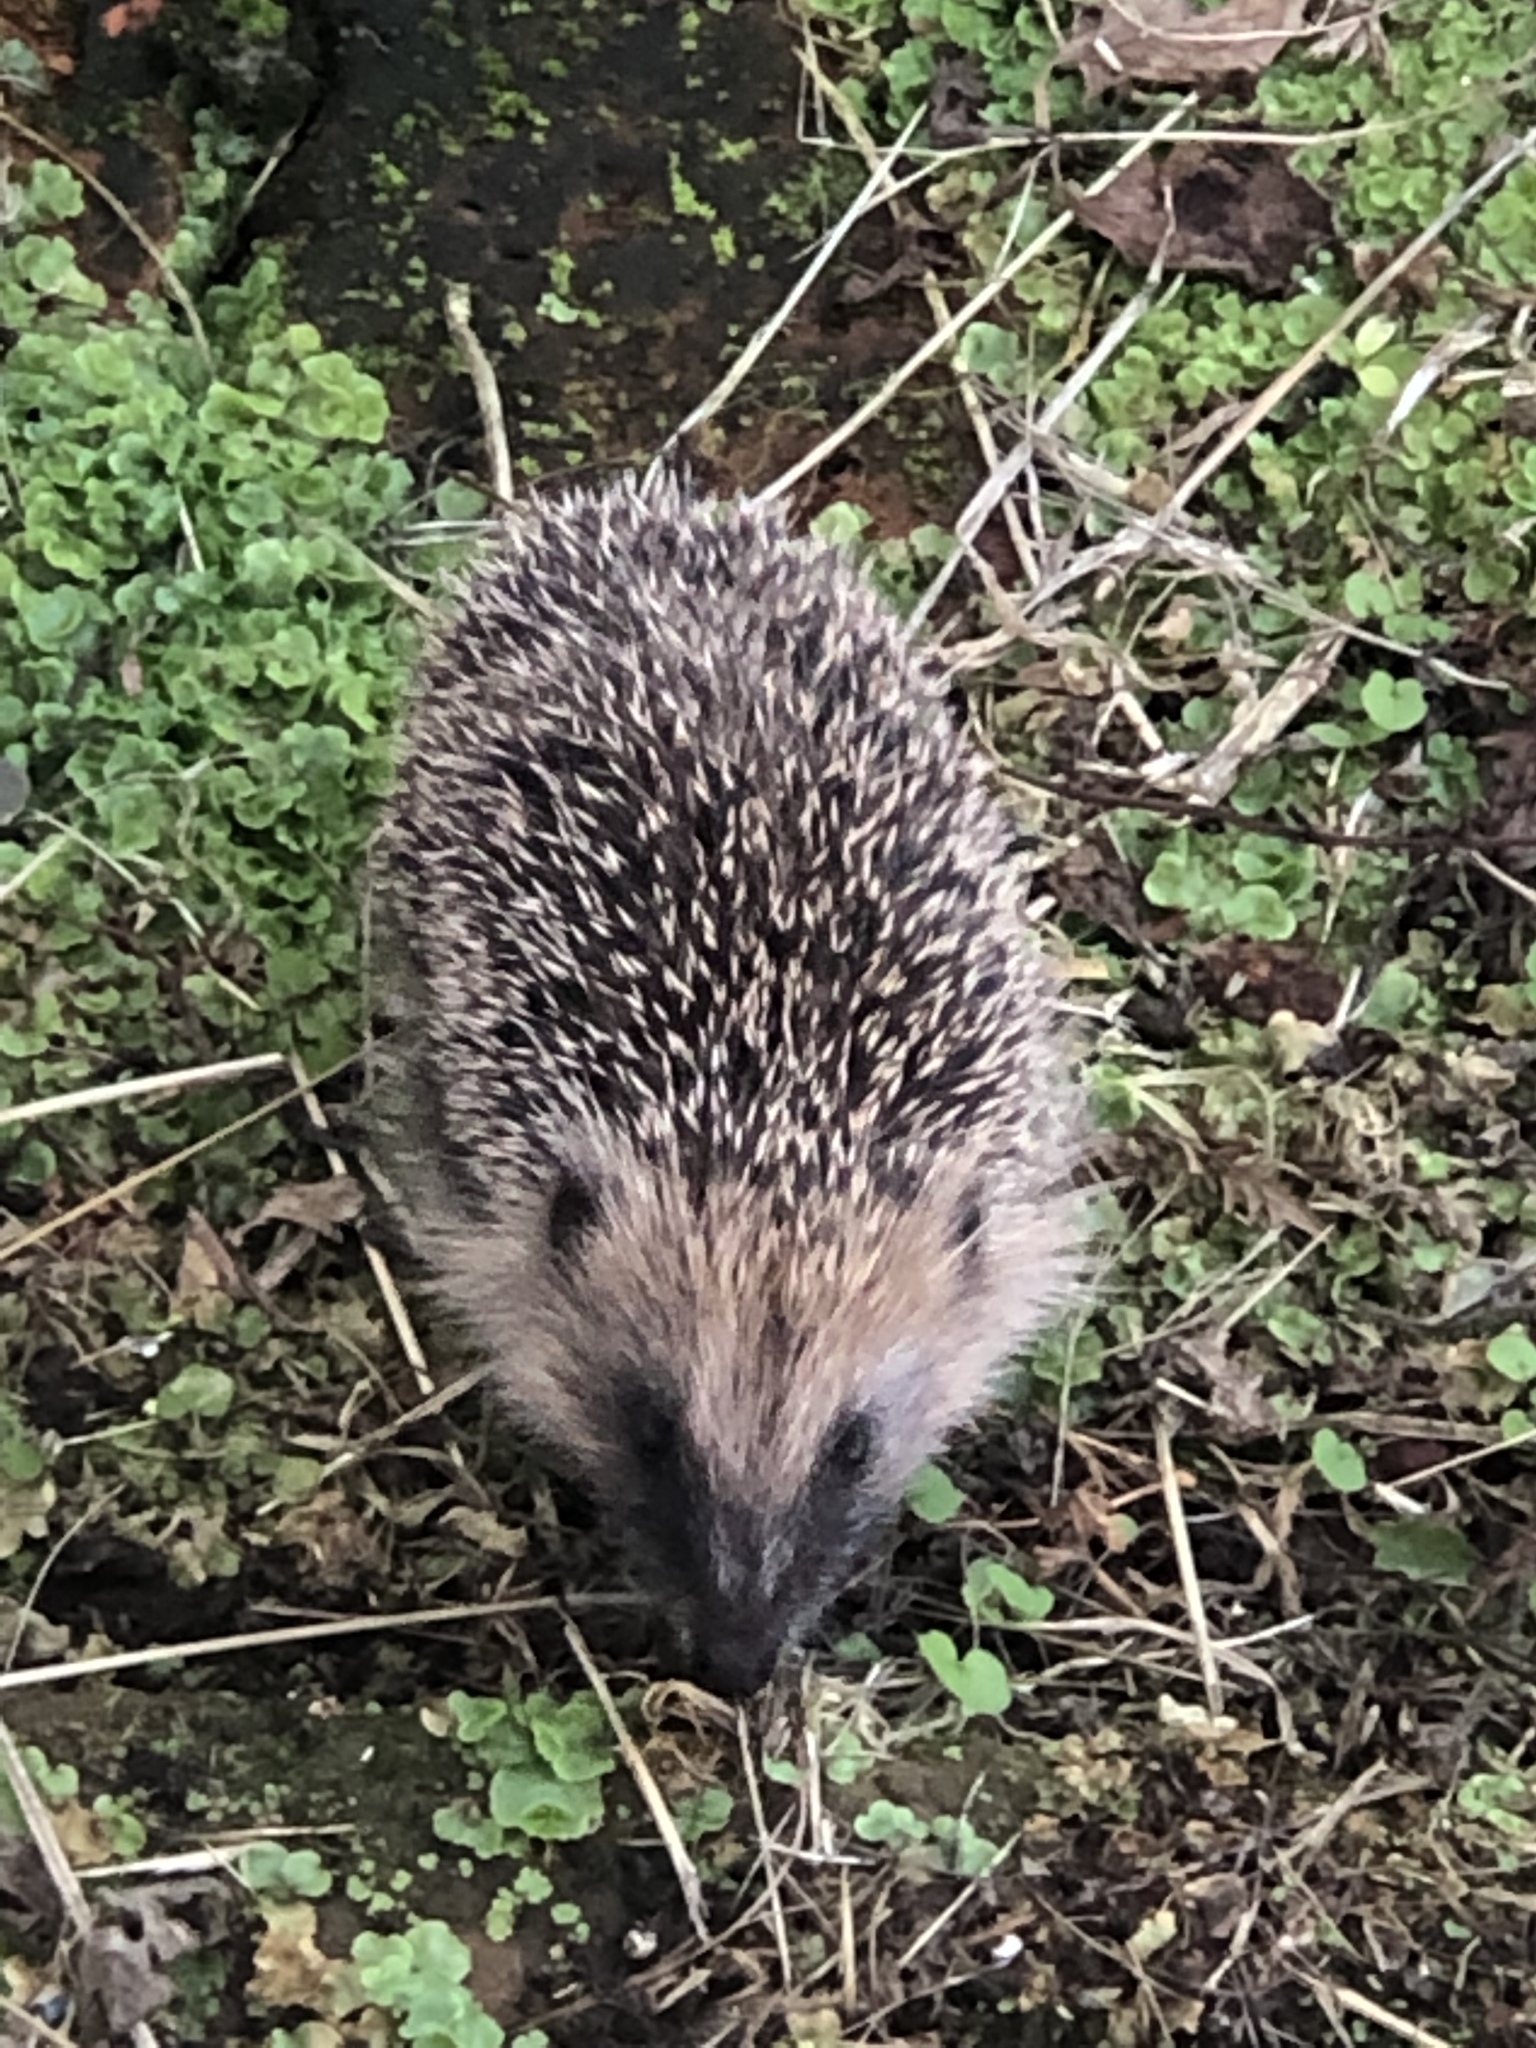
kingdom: Animalia
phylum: Chordata
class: Mammalia
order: Erinaceomorpha
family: Erinaceidae
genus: Erinaceus
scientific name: Erinaceus europaeus
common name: West european hedgehog
